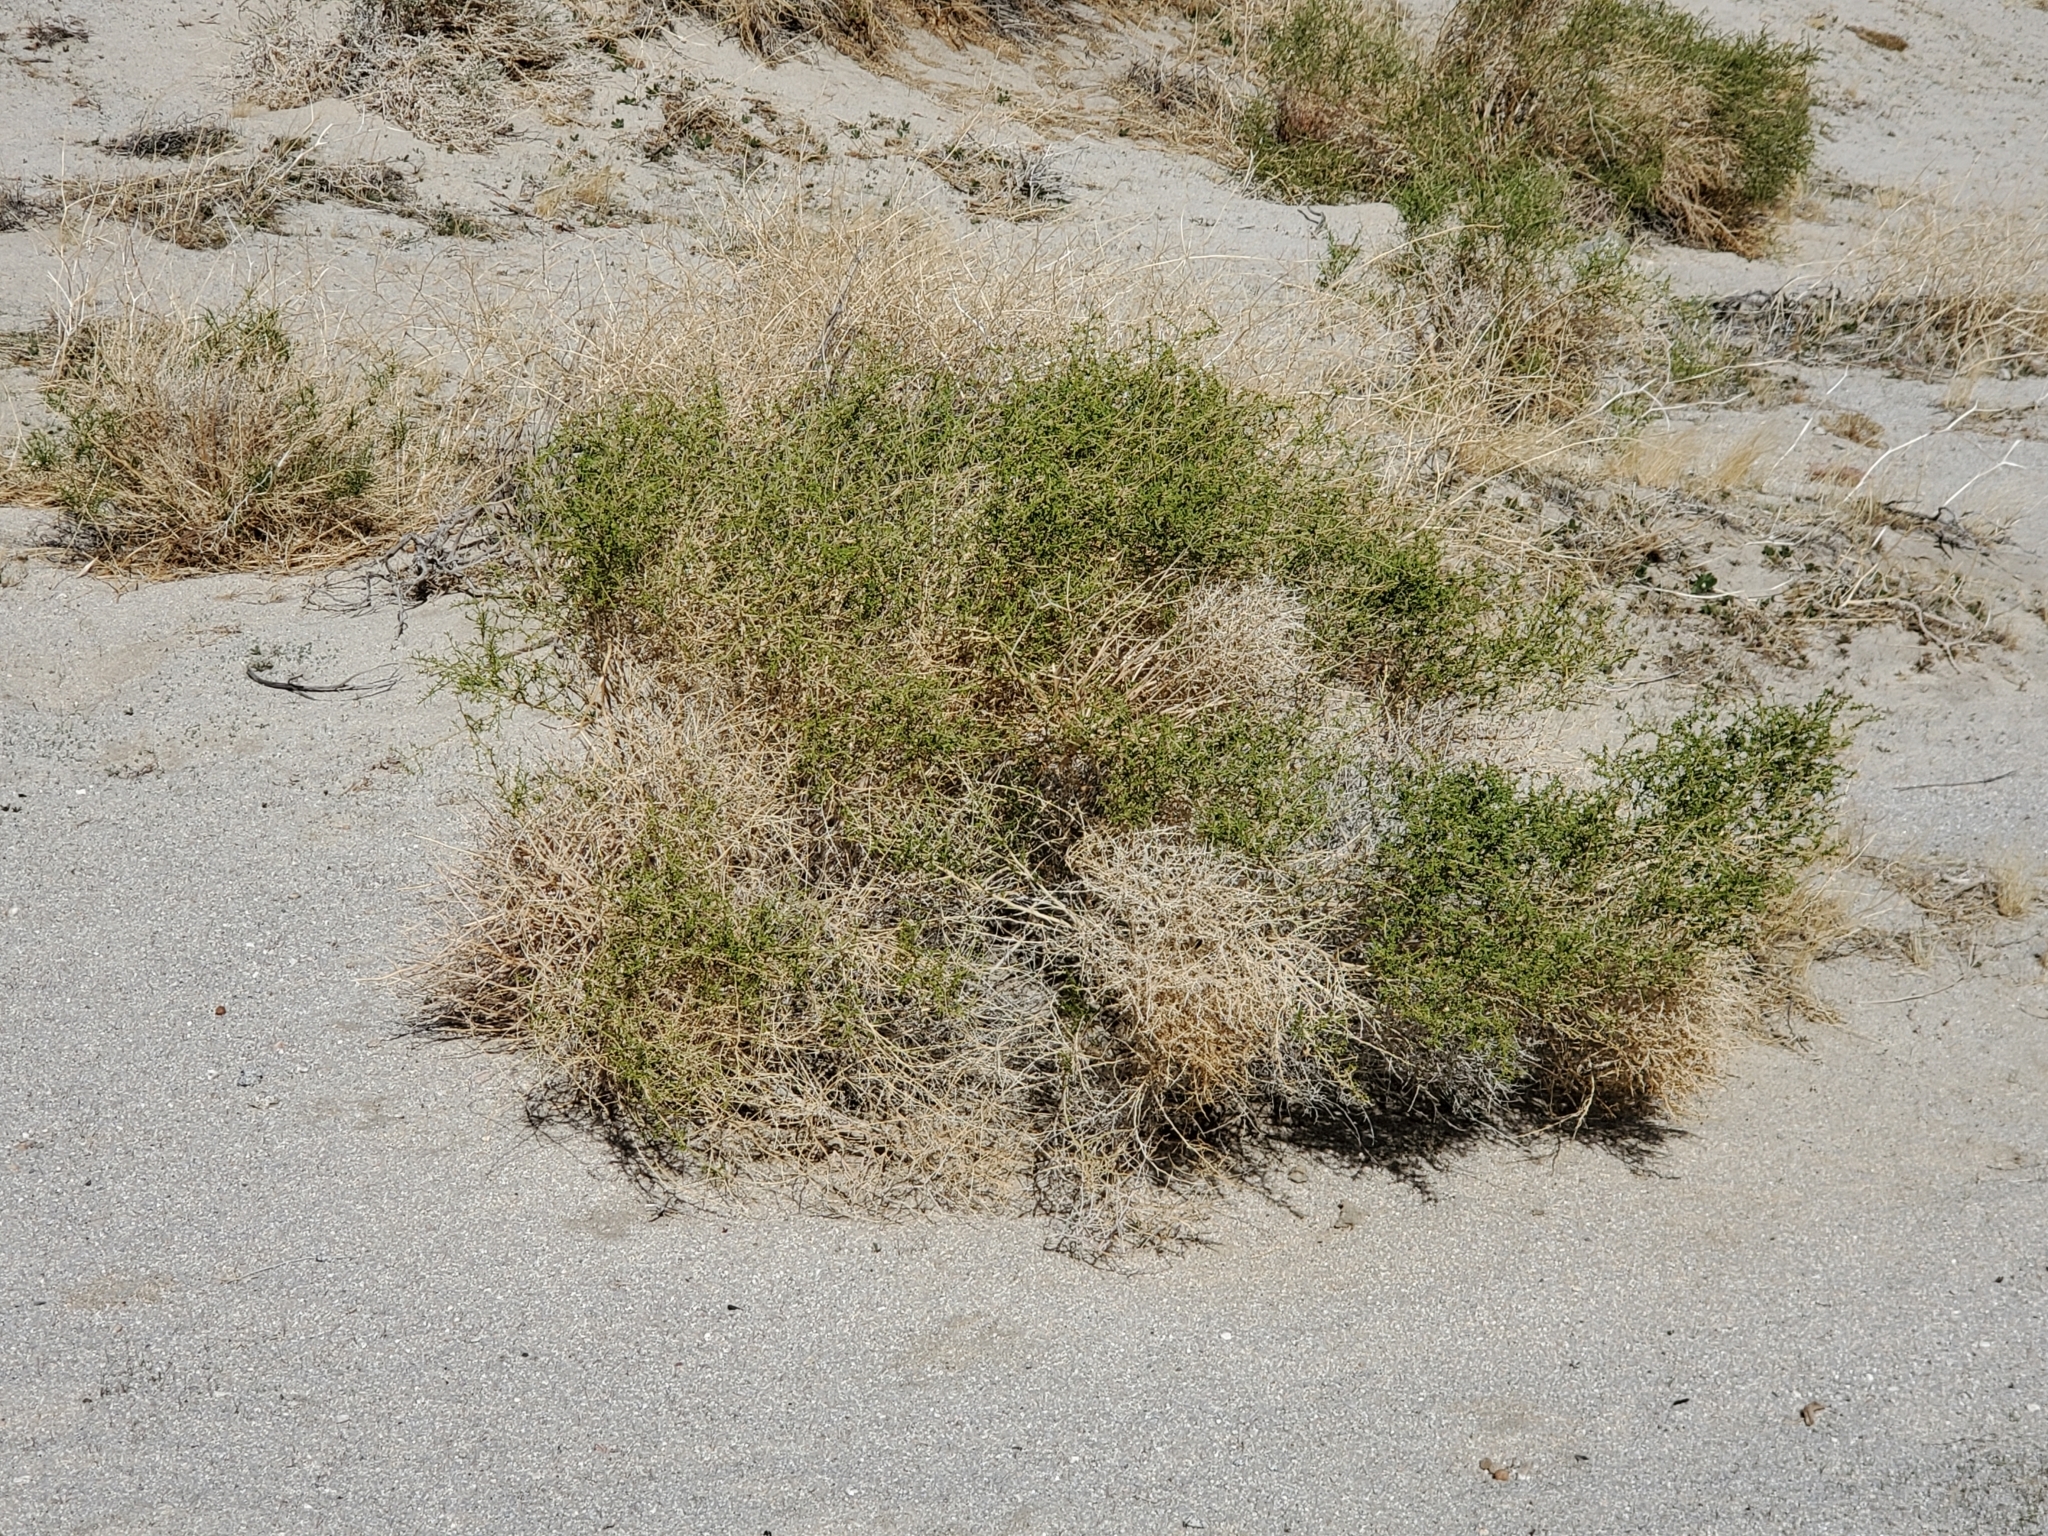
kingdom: Plantae
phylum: Tracheophyta
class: Magnoliopsida
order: Asterales
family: Asteraceae
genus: Ambrosia
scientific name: Ambrosia salsola
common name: Burrobrush
